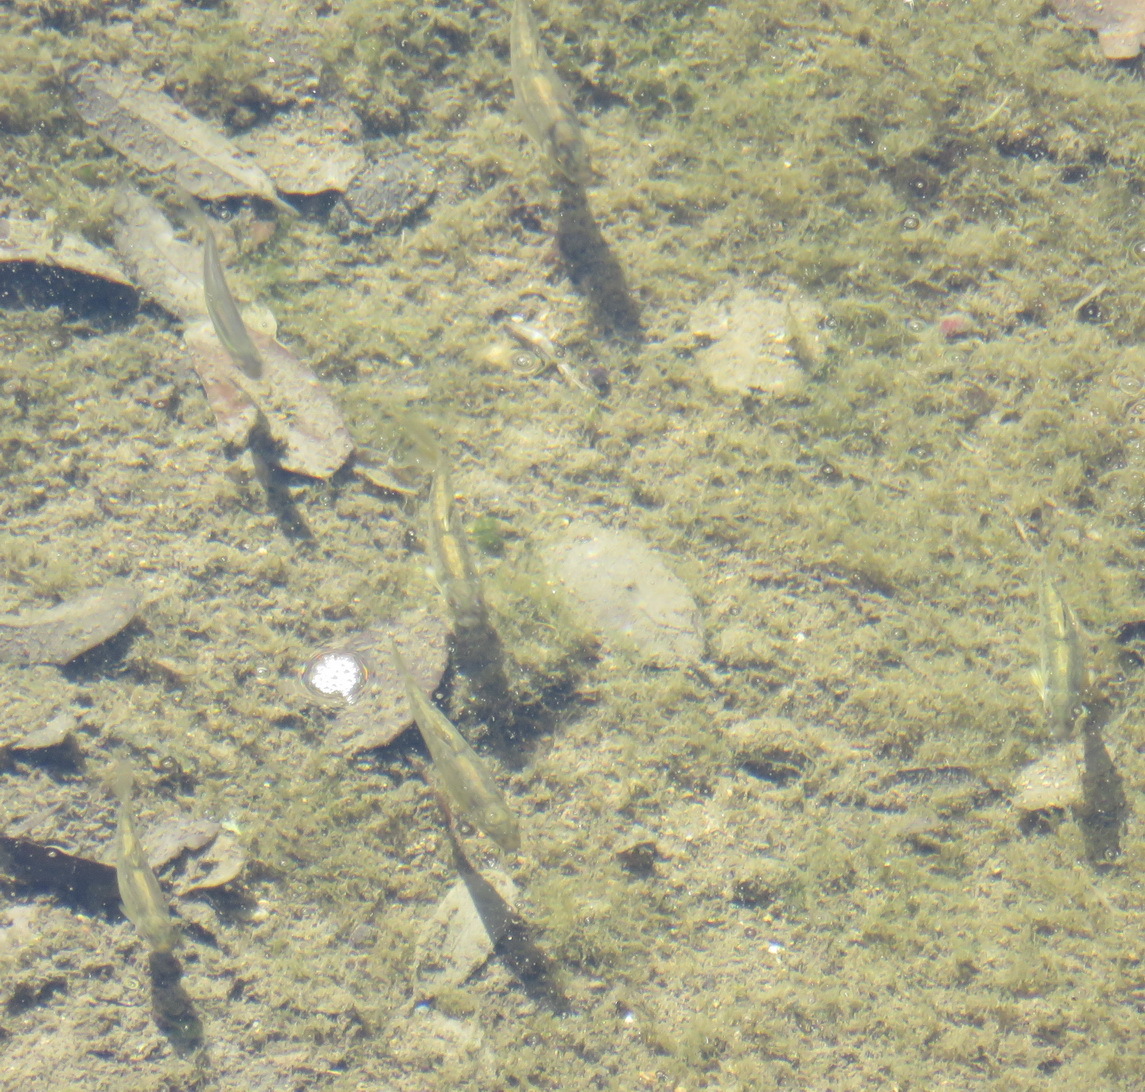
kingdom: Animalia
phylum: Chordata
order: Cypriniformes
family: Cyprinidae
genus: Campostoma
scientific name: Campostoma anomalum
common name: Central stoneroller
